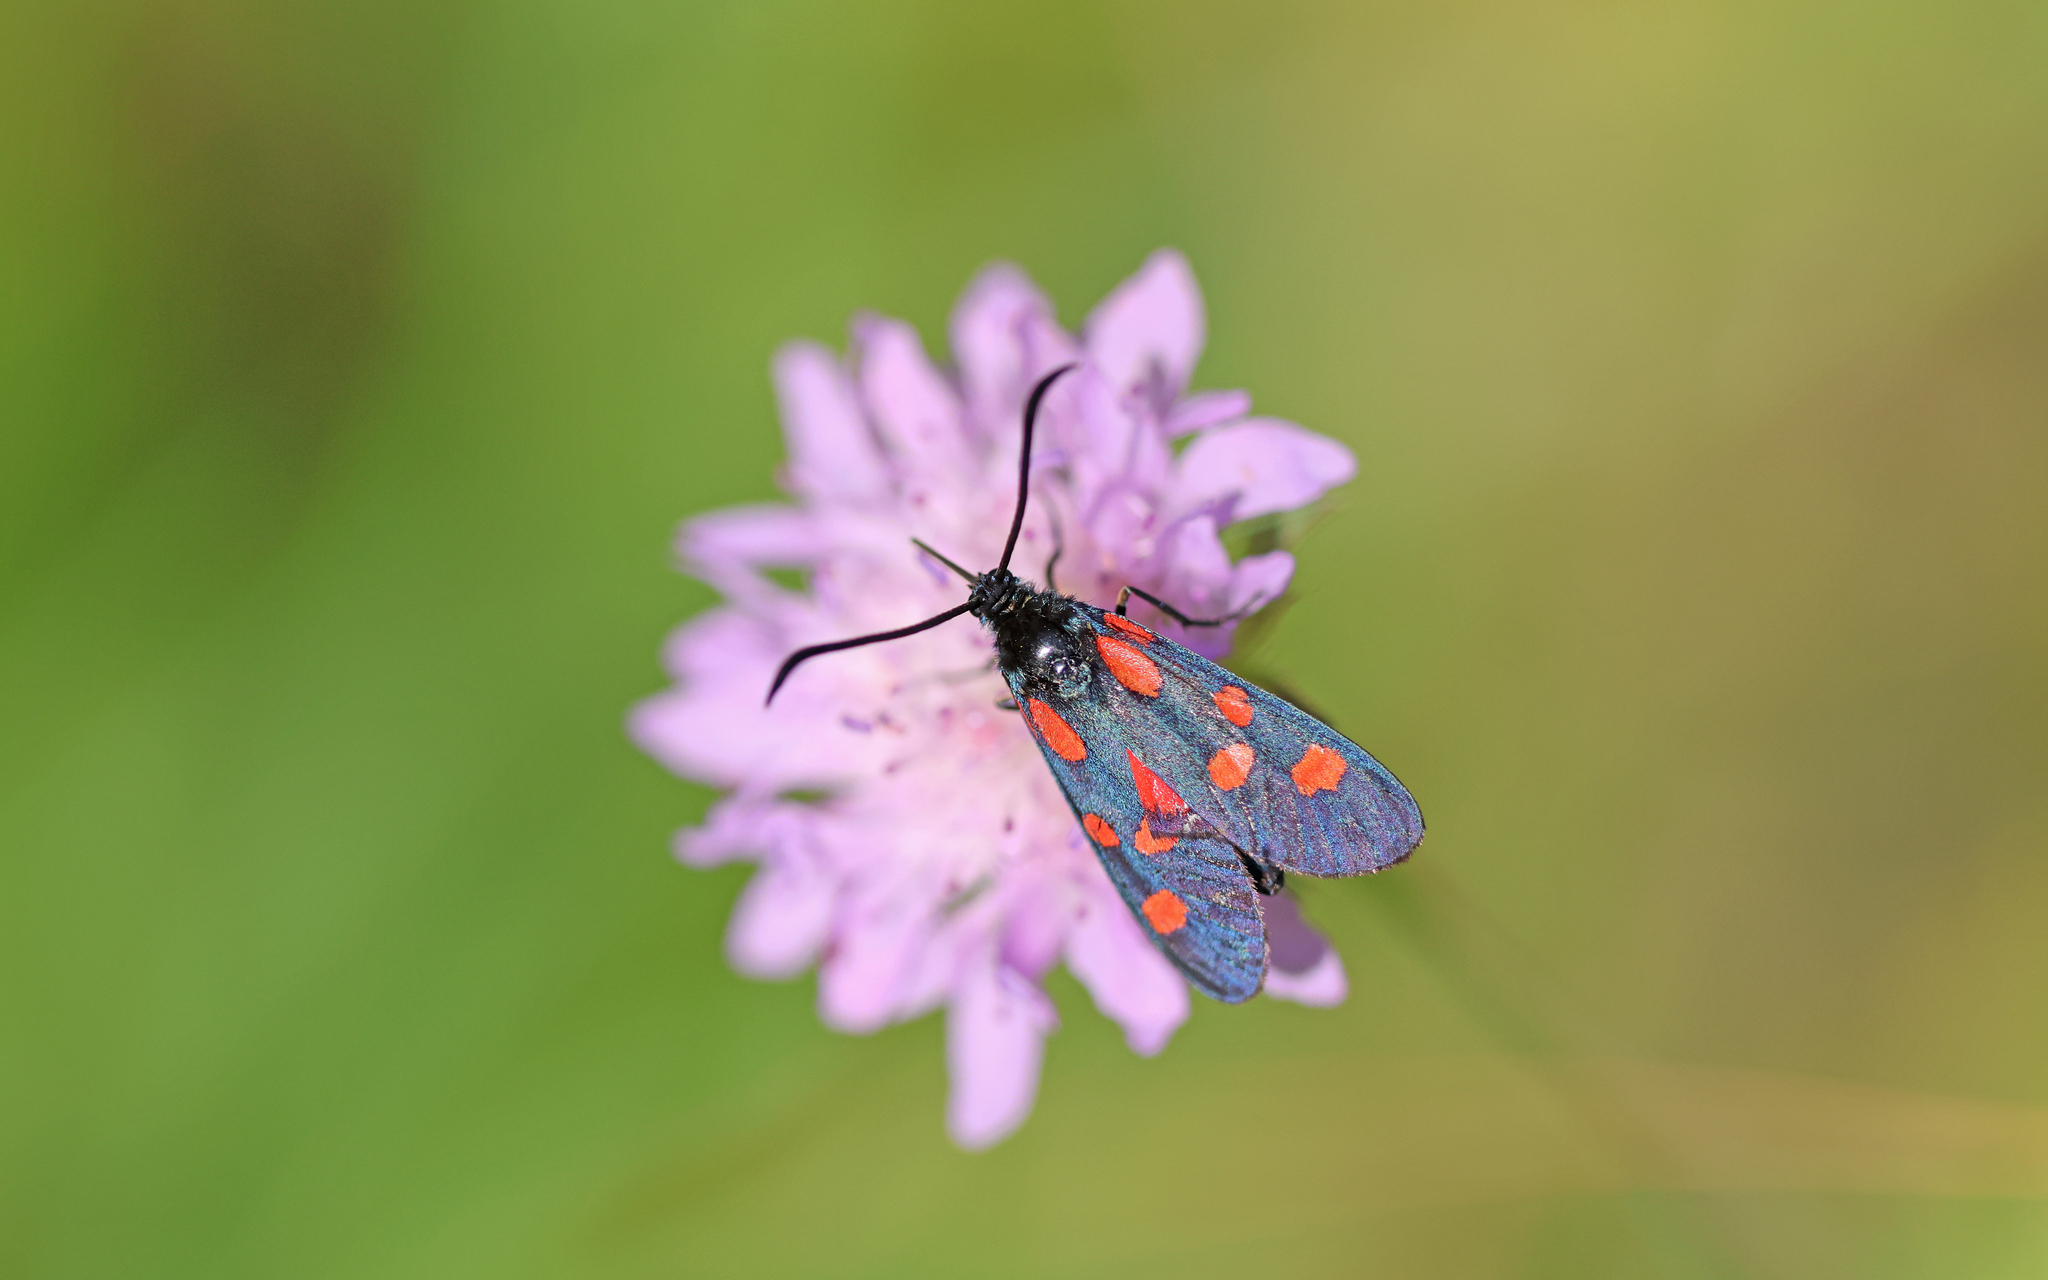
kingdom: Animalia
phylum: Arthropoda
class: Insecta
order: Lepidoptera
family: Zygaenidae
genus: Zygaena
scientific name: Zygaena angelicae
